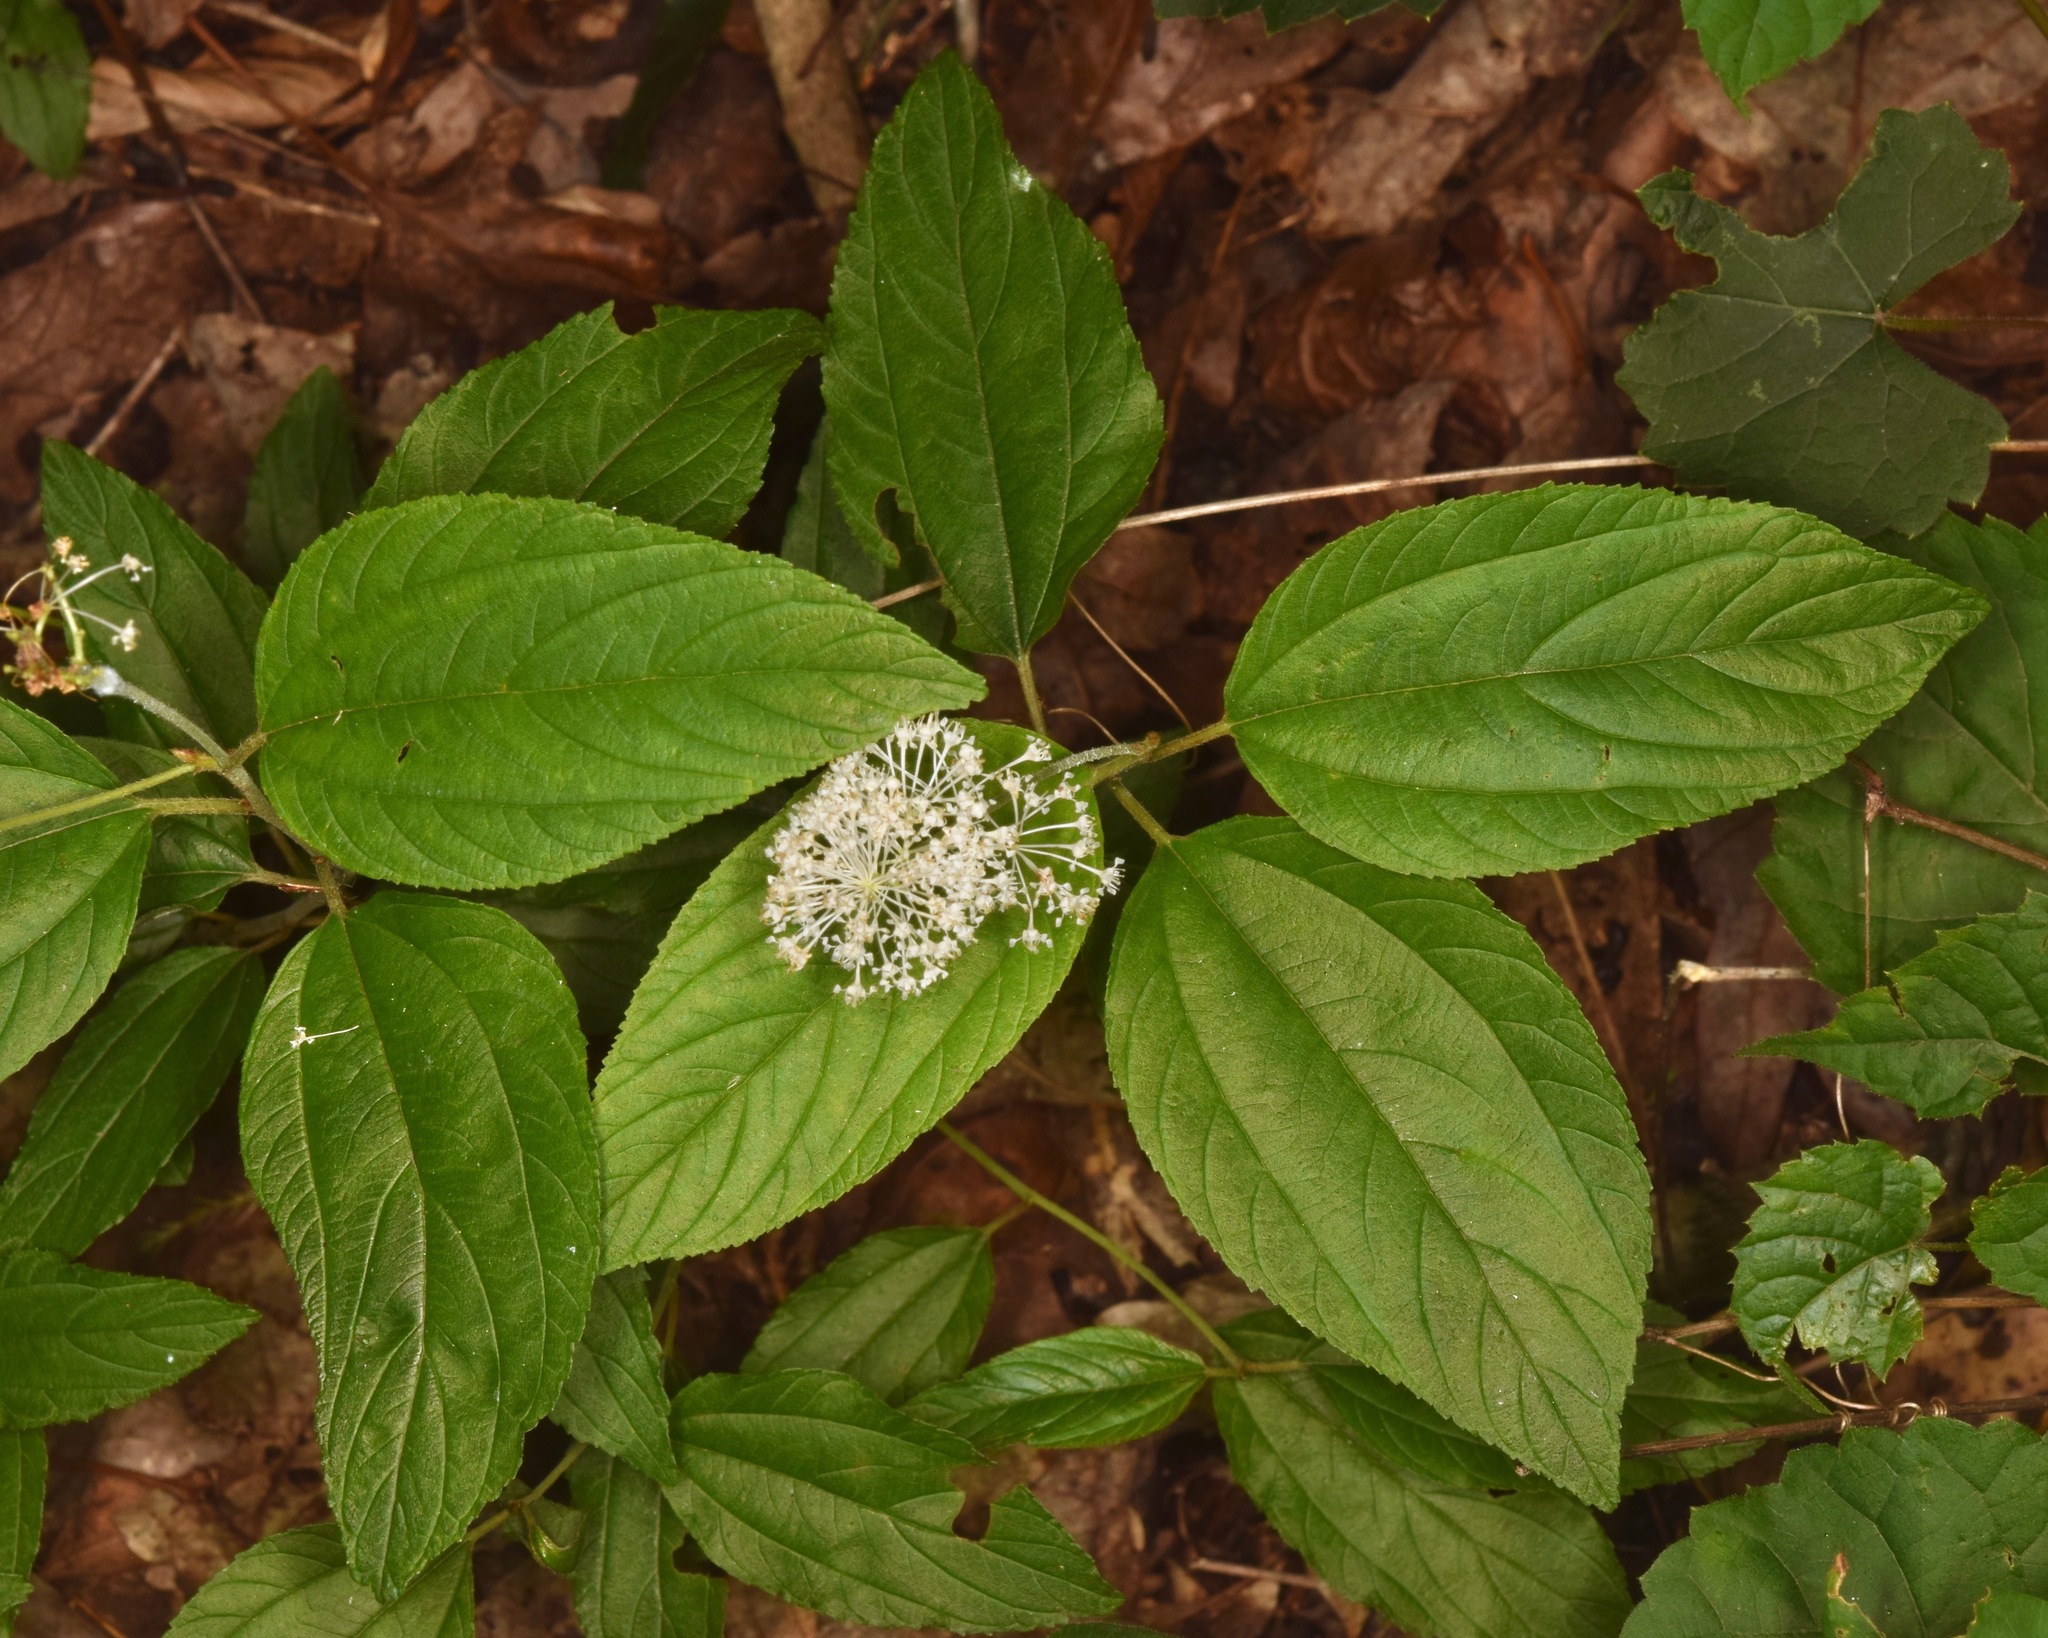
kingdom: Plantae
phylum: Tracheophyta
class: Magnoliopsida
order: Rosales
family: Rhamnaceae
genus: Ceanothus
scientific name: Ceanothus americanus
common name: Redroot
